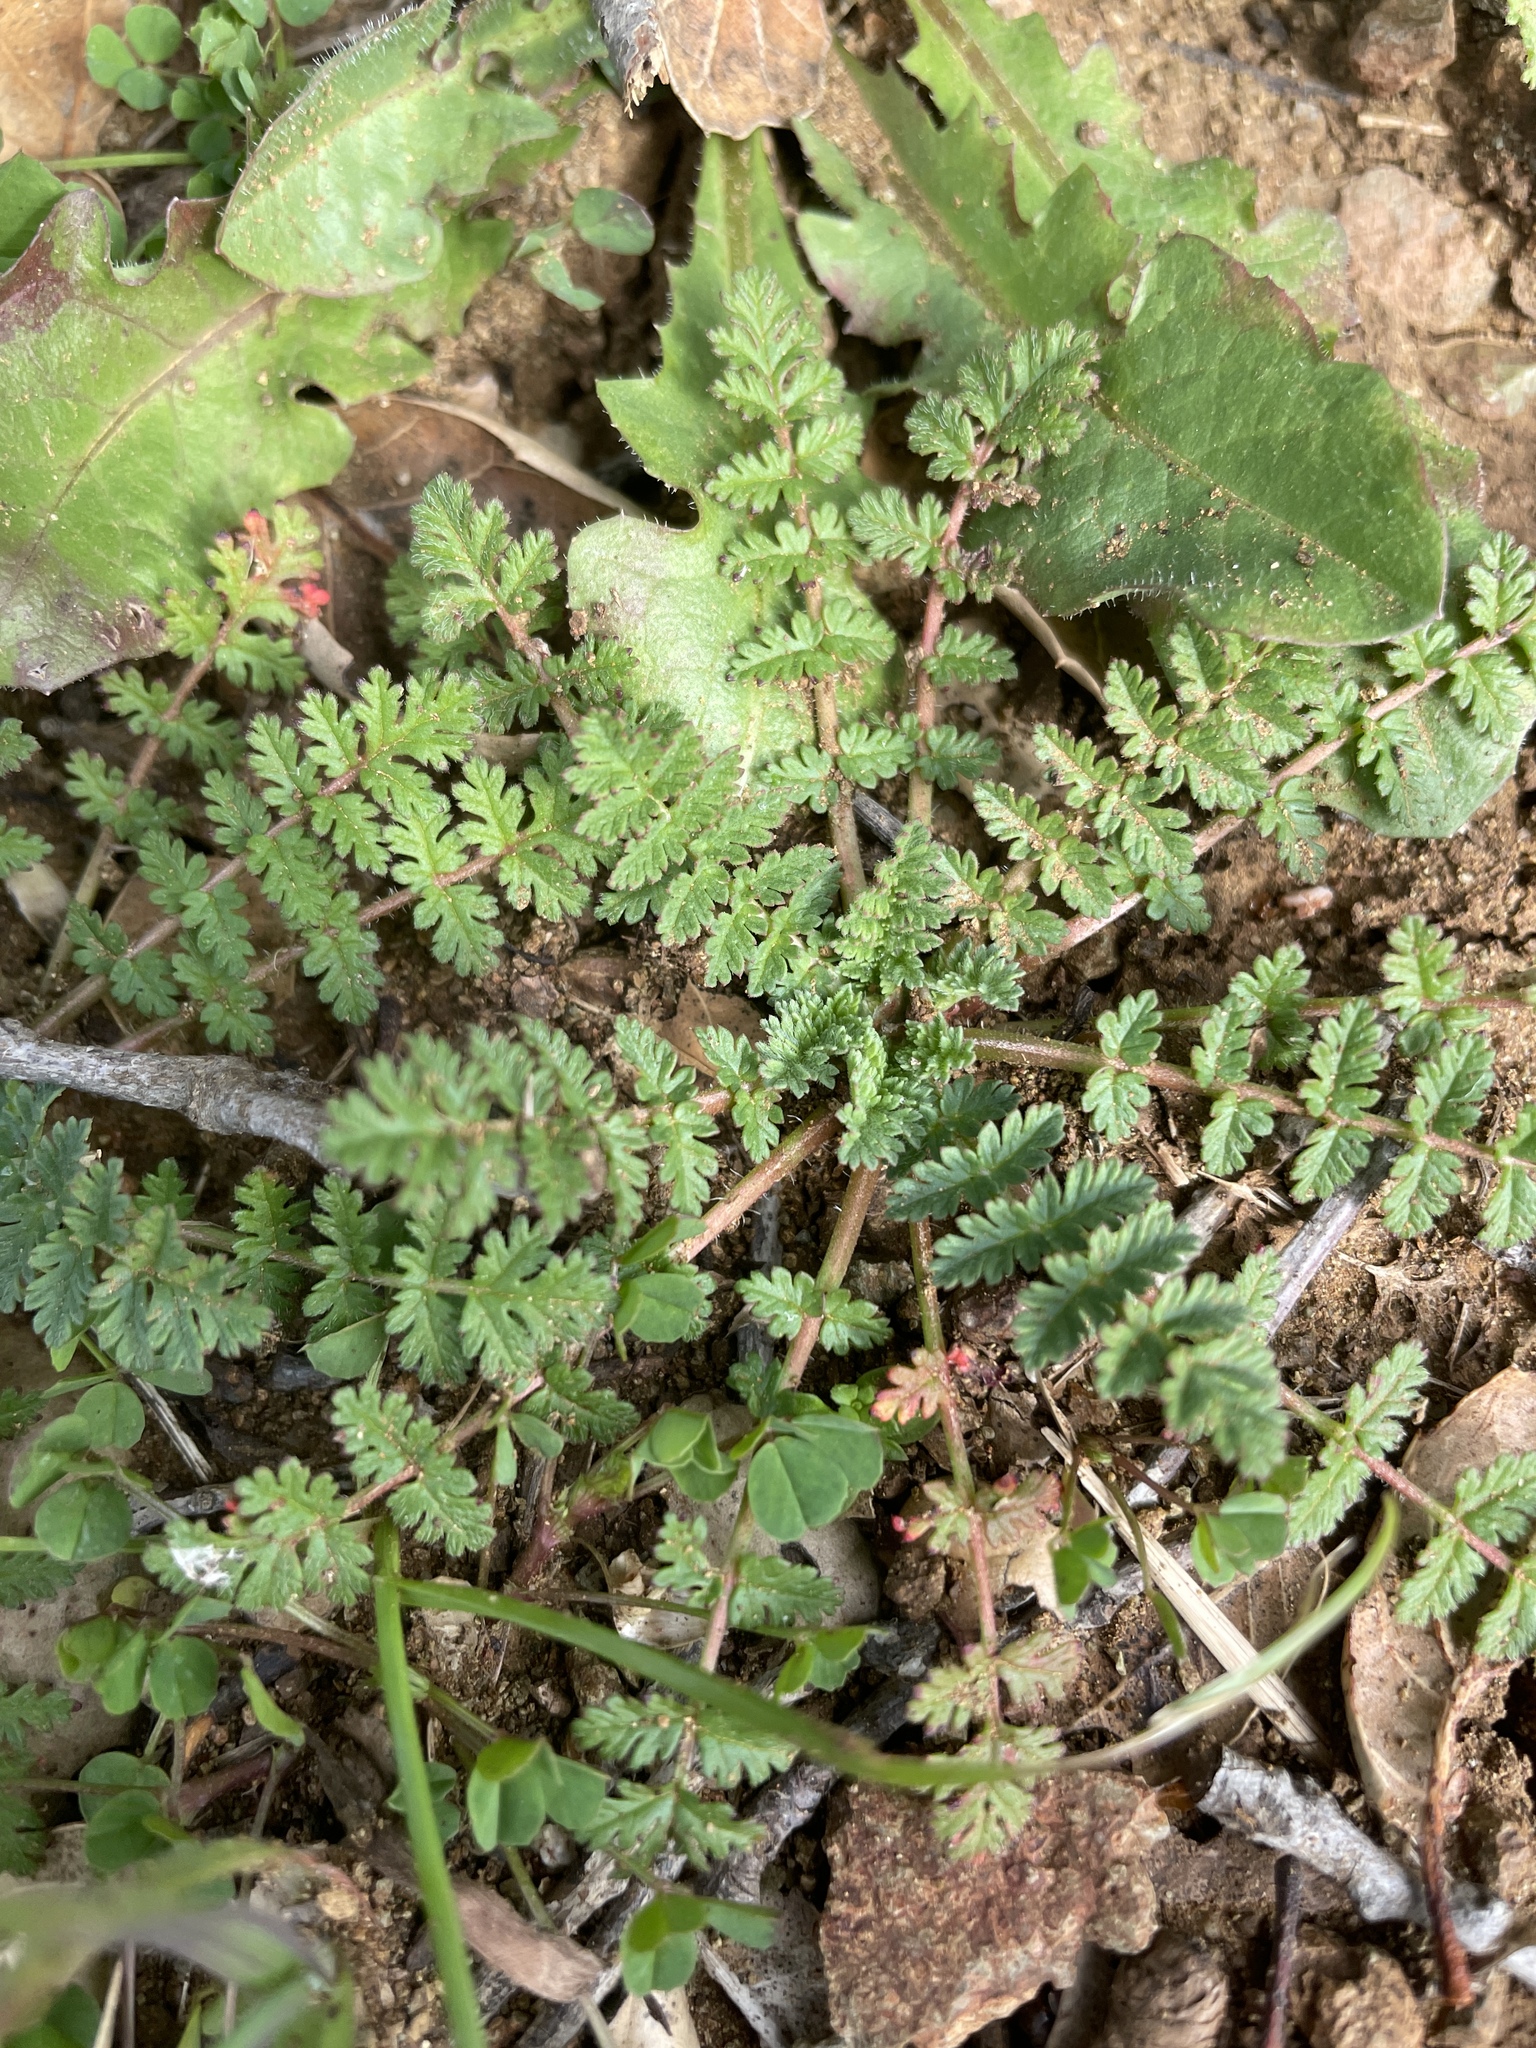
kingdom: Plantae
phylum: Tracheophyta
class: Magnoliopsida
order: Geraniales
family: Geraniaceae
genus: Erodium
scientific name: Erodium cicutarium
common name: Common stork's-bill
